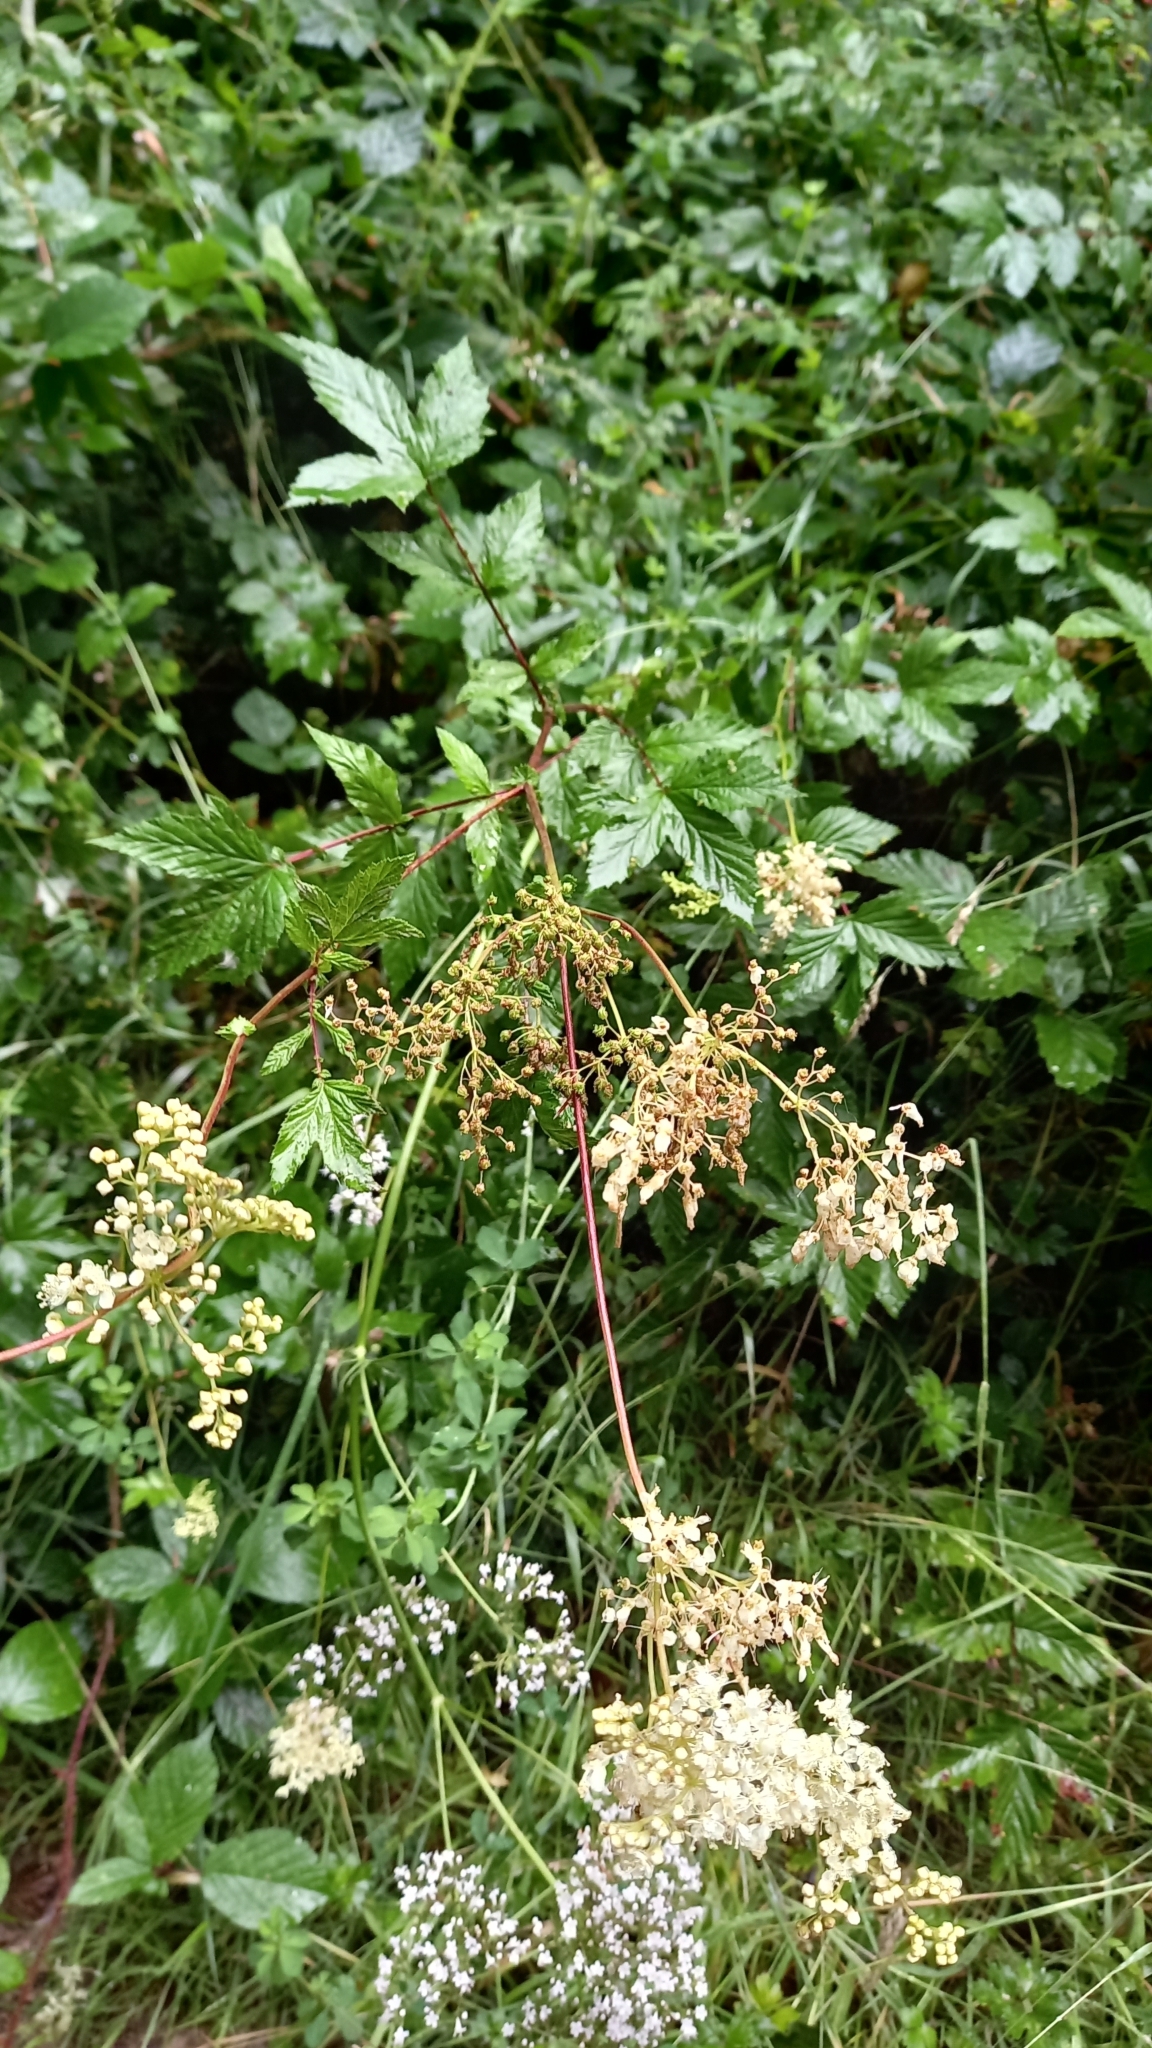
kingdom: Plantae
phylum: Tracheophyta
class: Magnoliopsida
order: Rosales
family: Rosaceae
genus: Filipendula
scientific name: Filipendula ulmaria
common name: Meadowsweet
